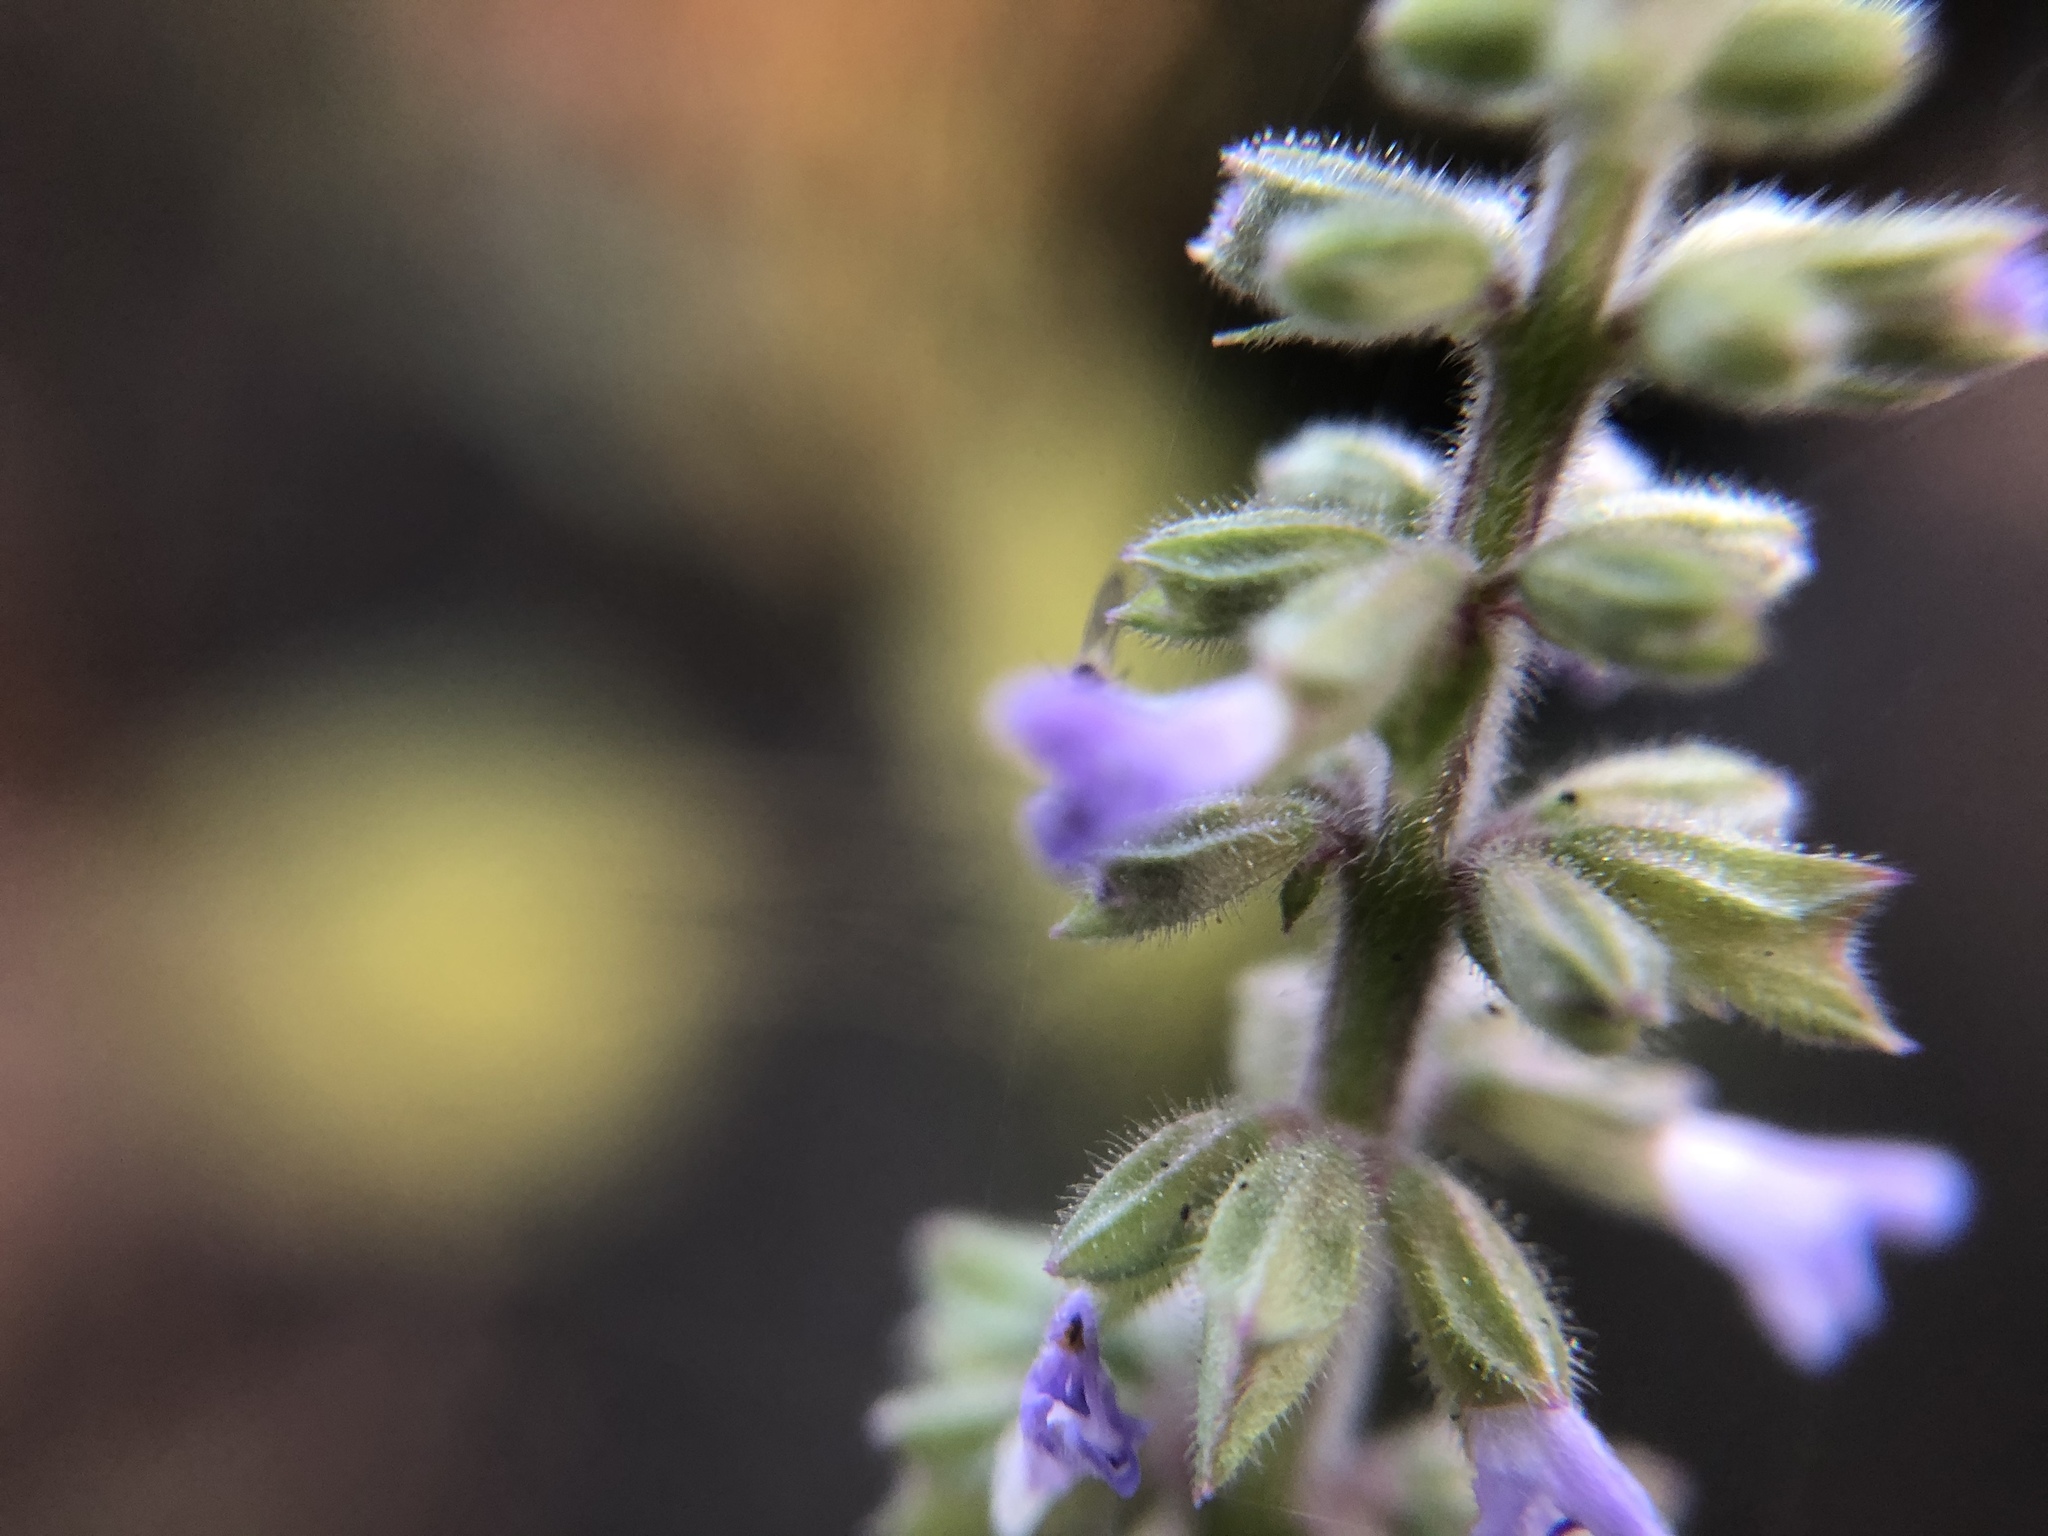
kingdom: Plantae
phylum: Tracheophyta
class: Magnoliopsida
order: Lamiales
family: Lamiaceae
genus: Salvia
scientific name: Salvia plebeia
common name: Australian sage
